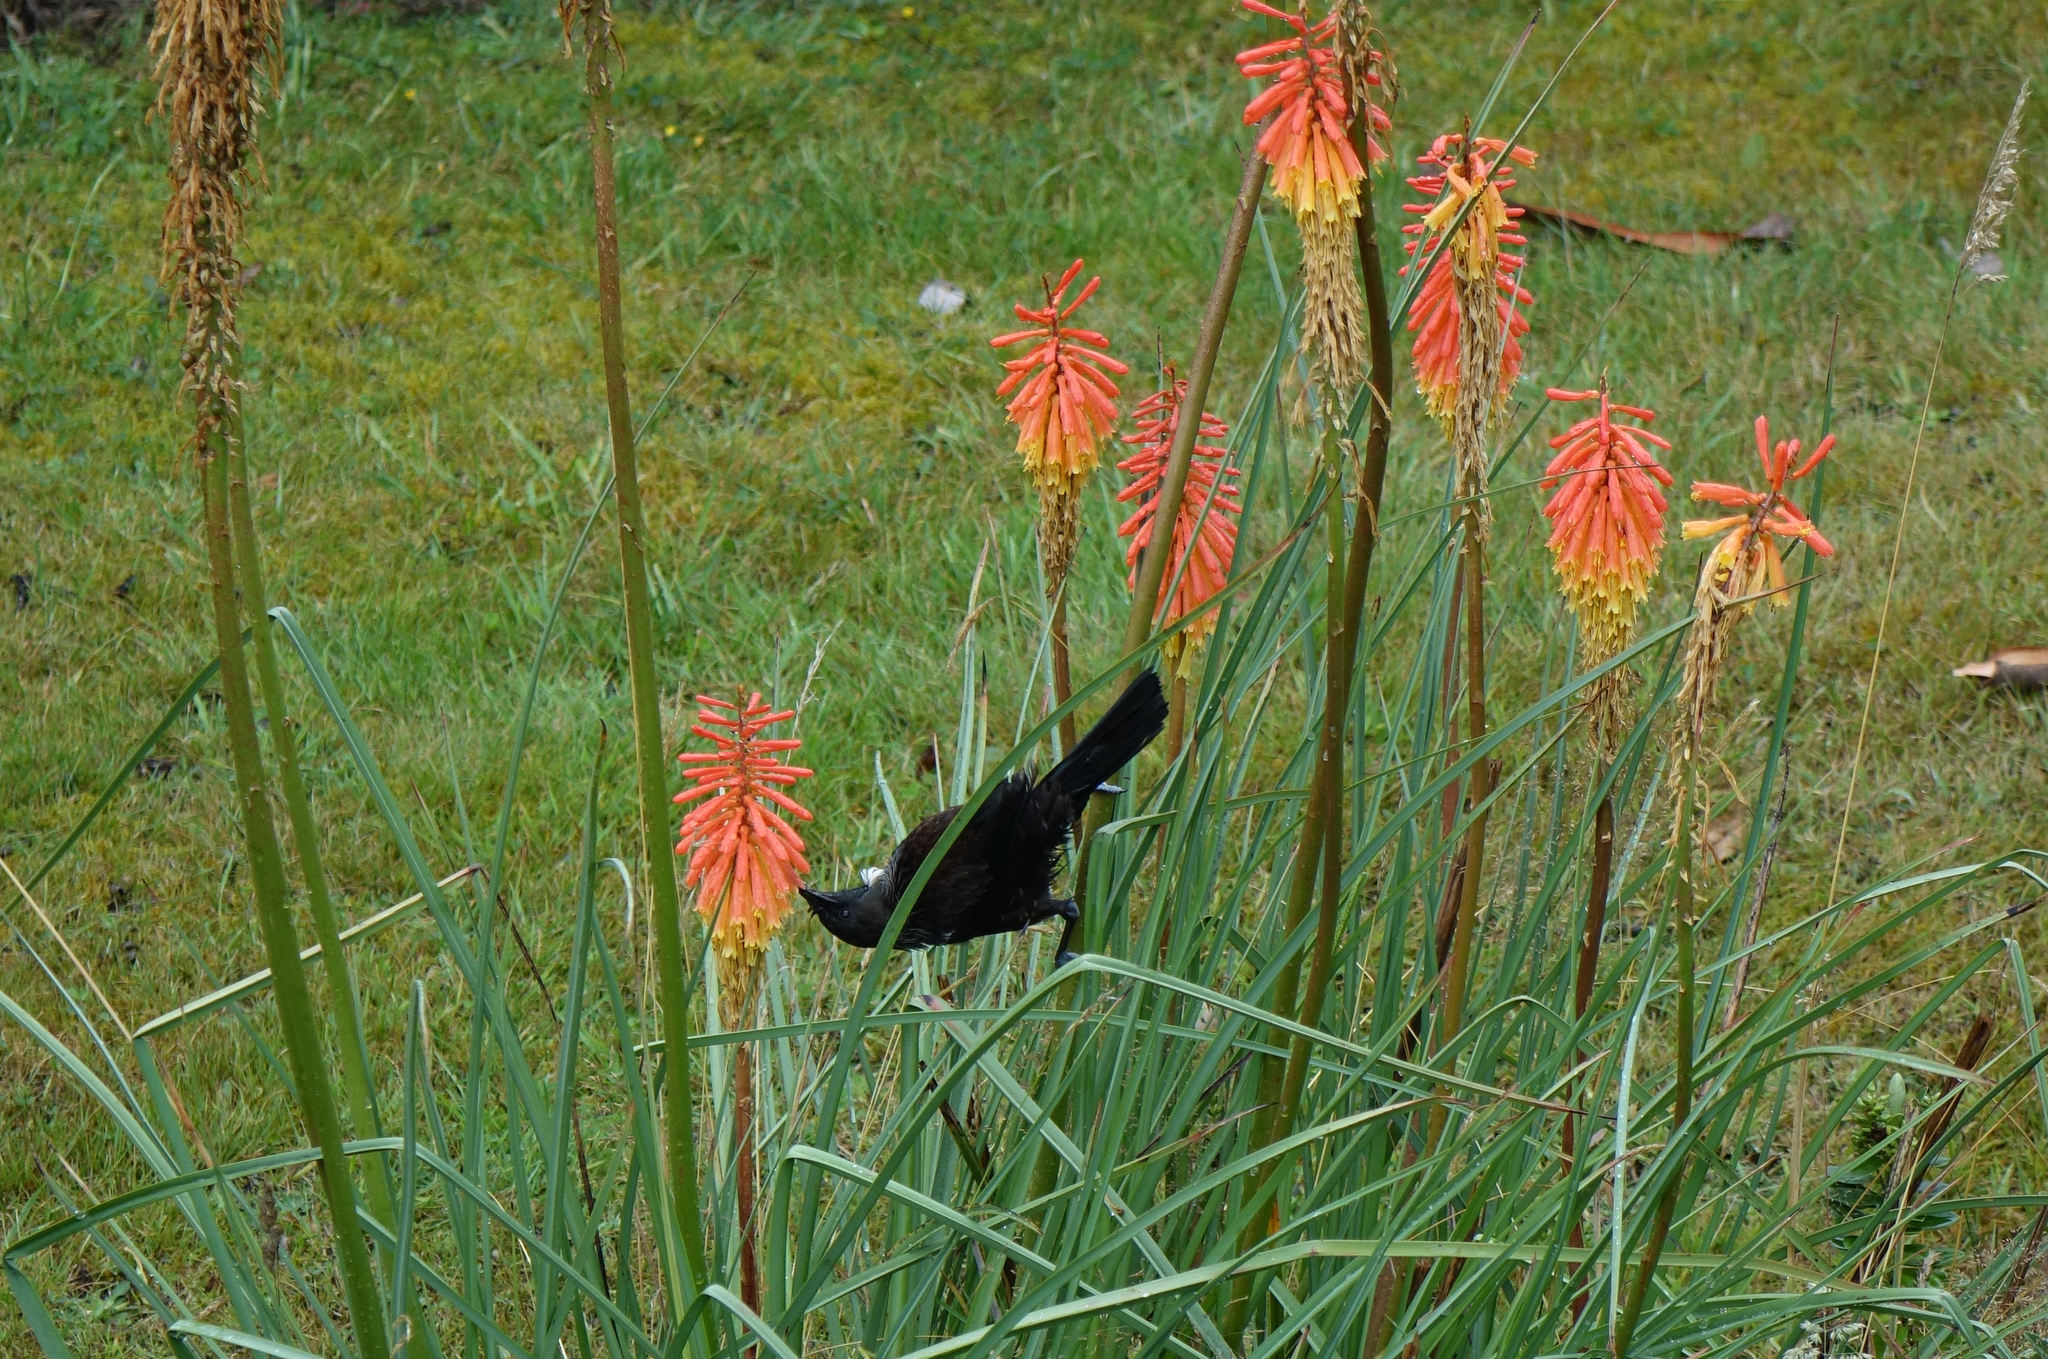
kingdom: Animalia
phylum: Chordata
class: Aves
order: Passeriformes
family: Meliphagidae
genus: Prosthemadera
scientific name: Prosthemadera novaeseelandiae
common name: Tui
